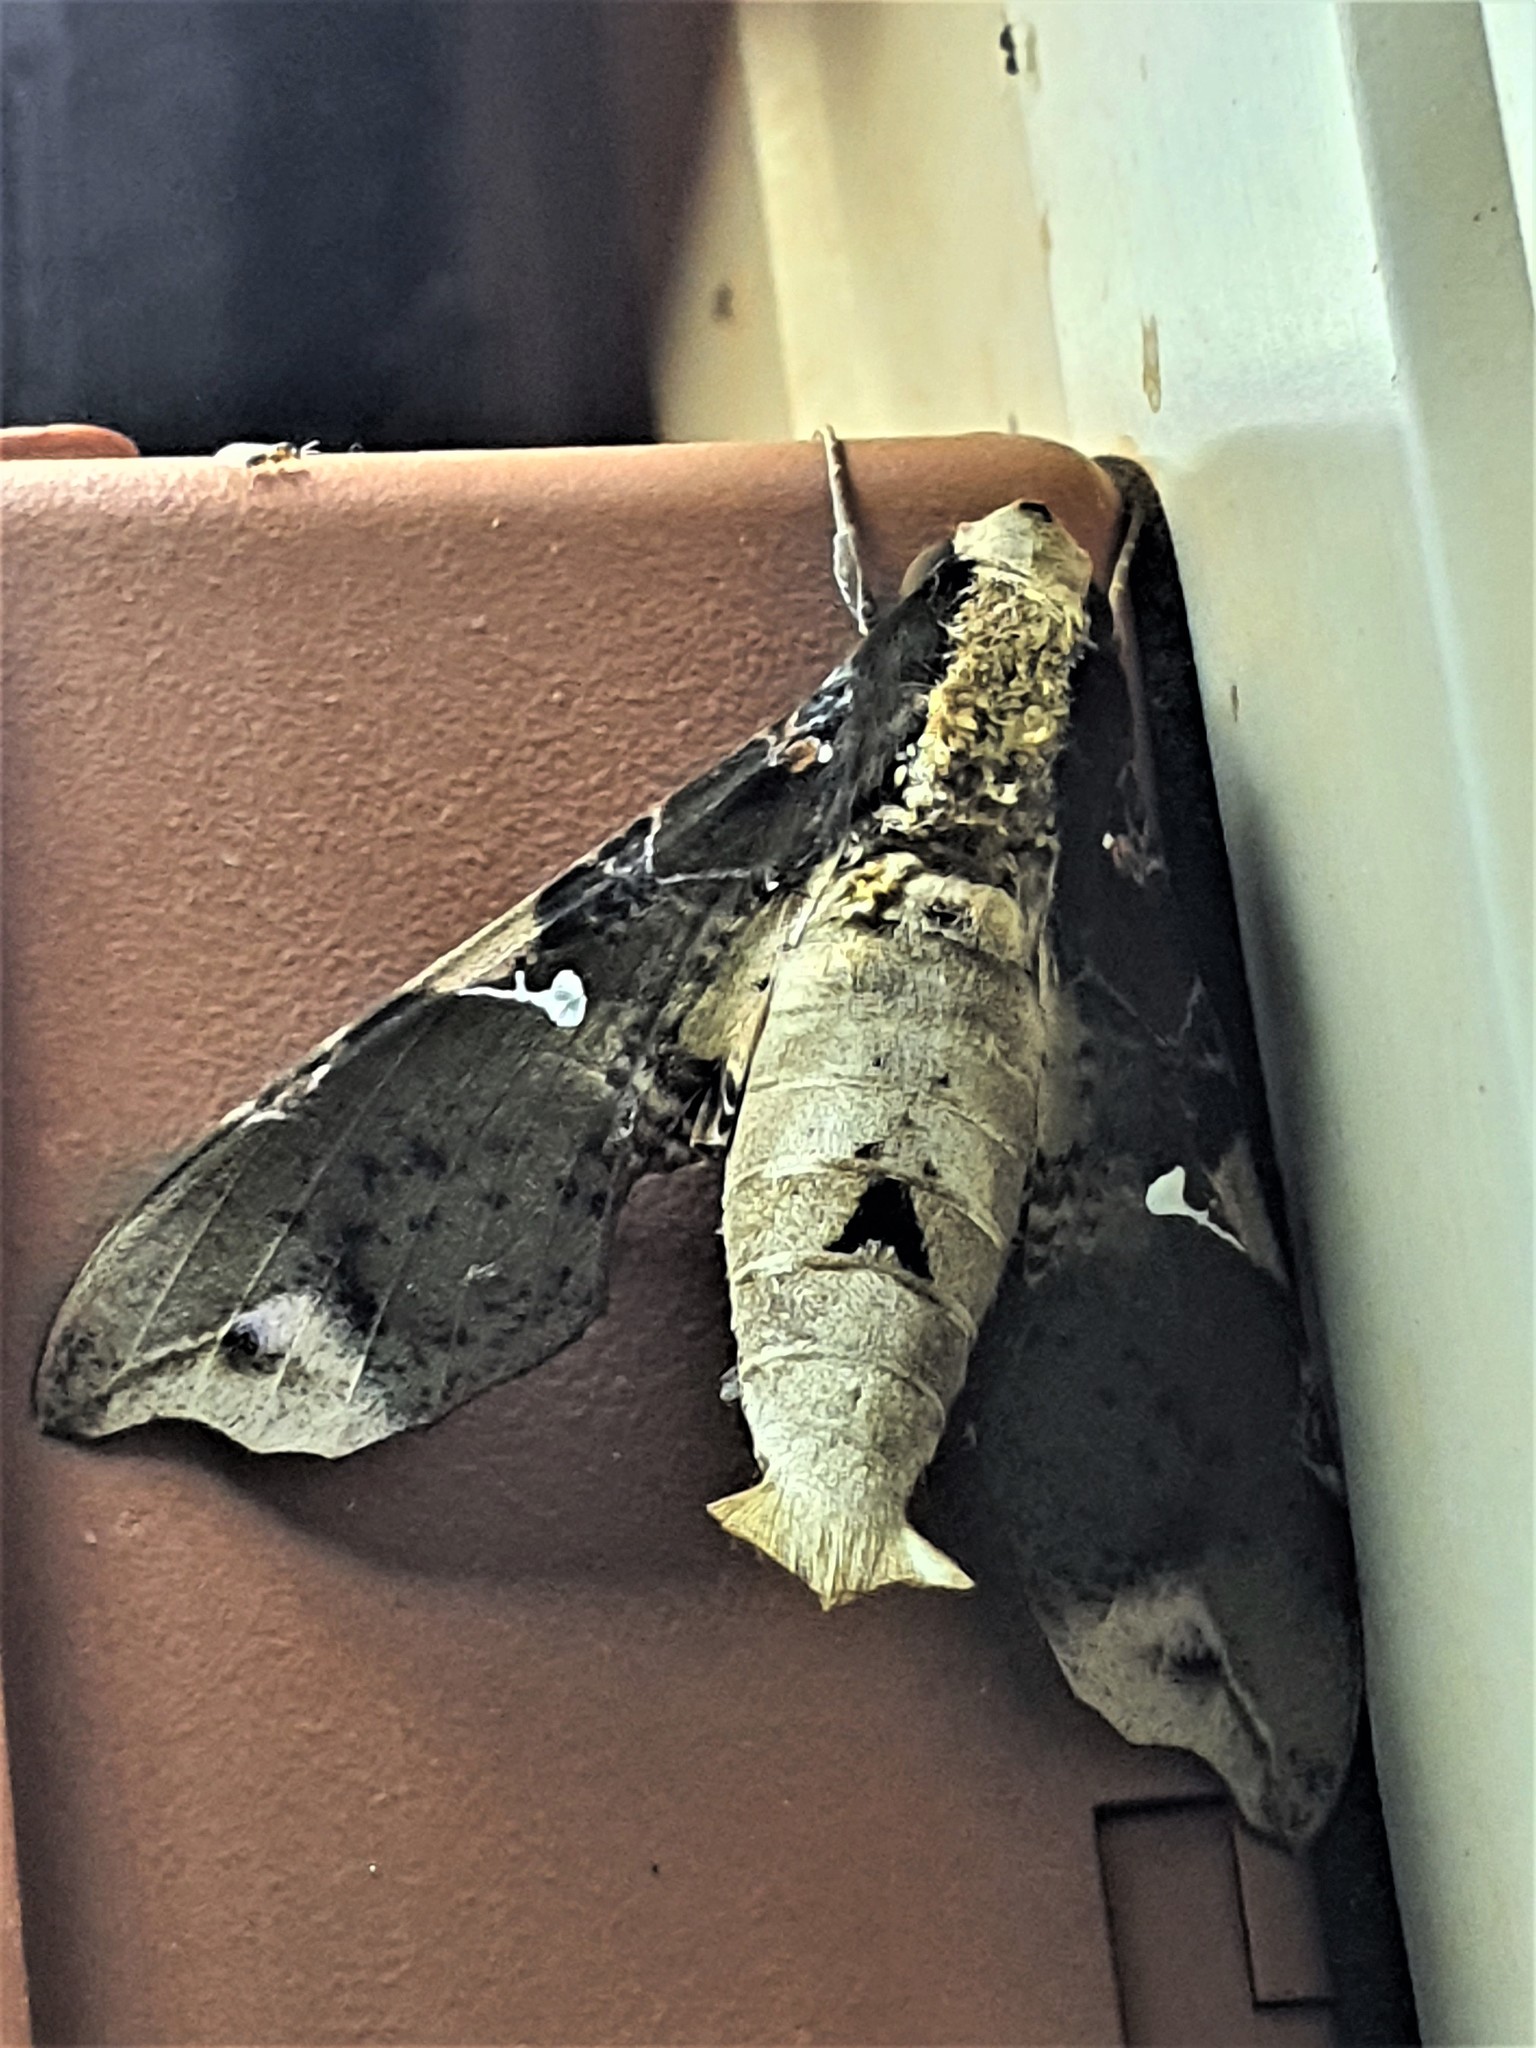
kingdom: Animalia
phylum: Arthropoda
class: Insecta
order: Lepidoptera
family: Sphingidae
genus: Callionima
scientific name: Callionima pan
